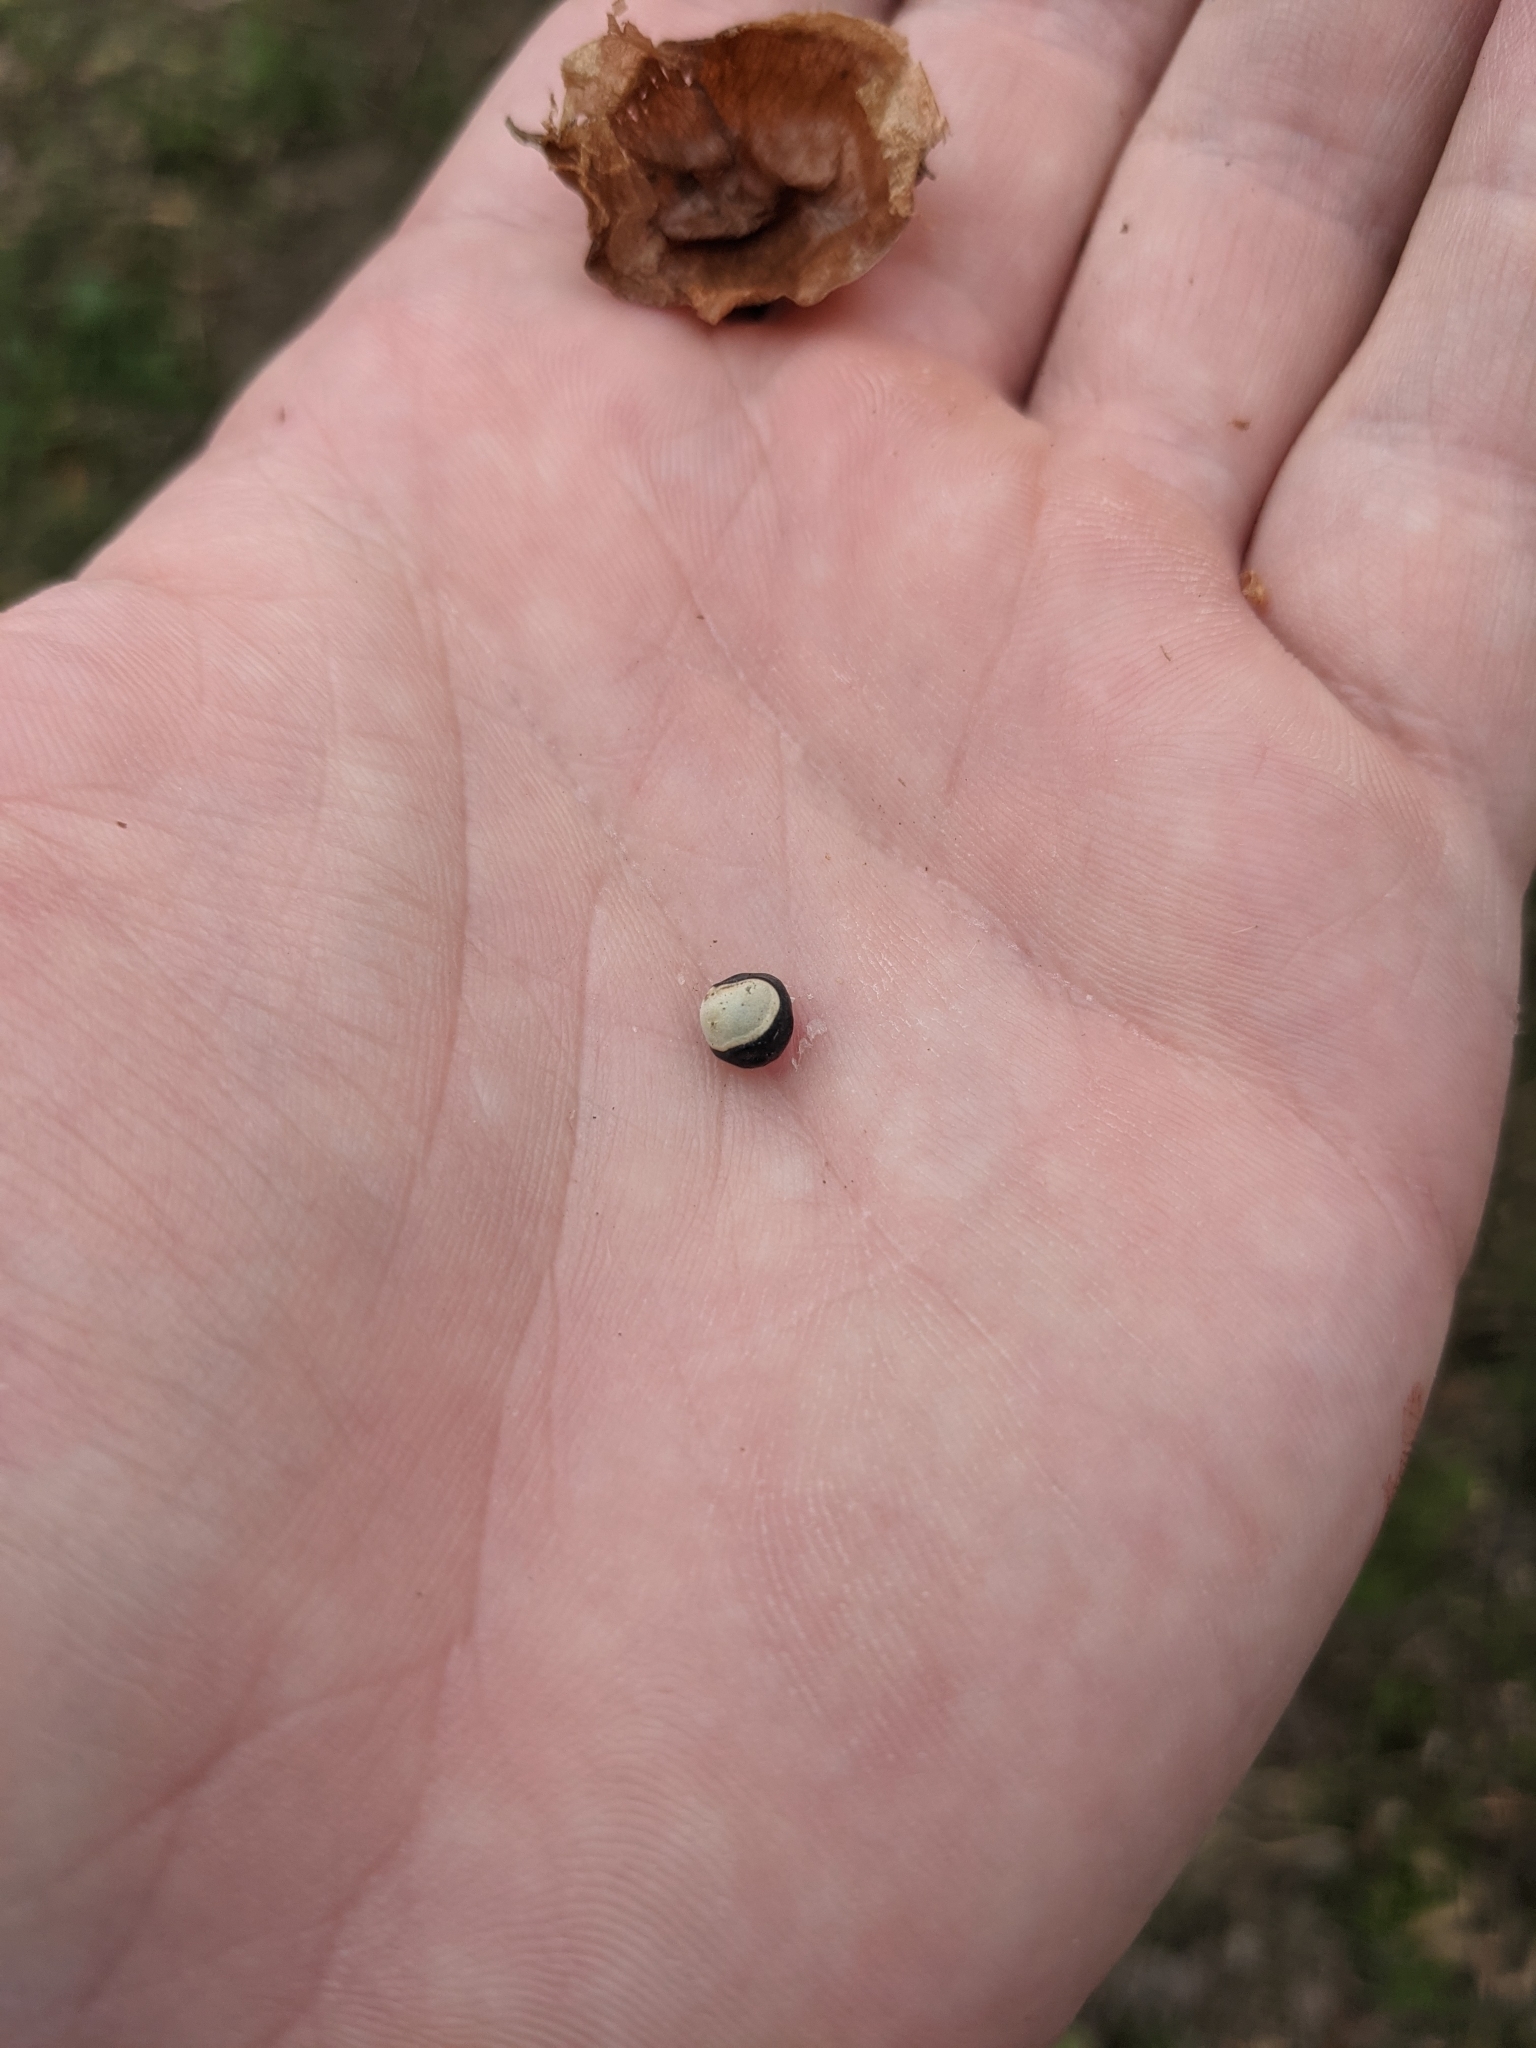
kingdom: Plantae
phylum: Tracheophyta
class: Magnoliopsida
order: Sapindales
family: Sapindaceae
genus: Cardiospermum
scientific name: Cardiospermum halicacabum
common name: Balloon vine
